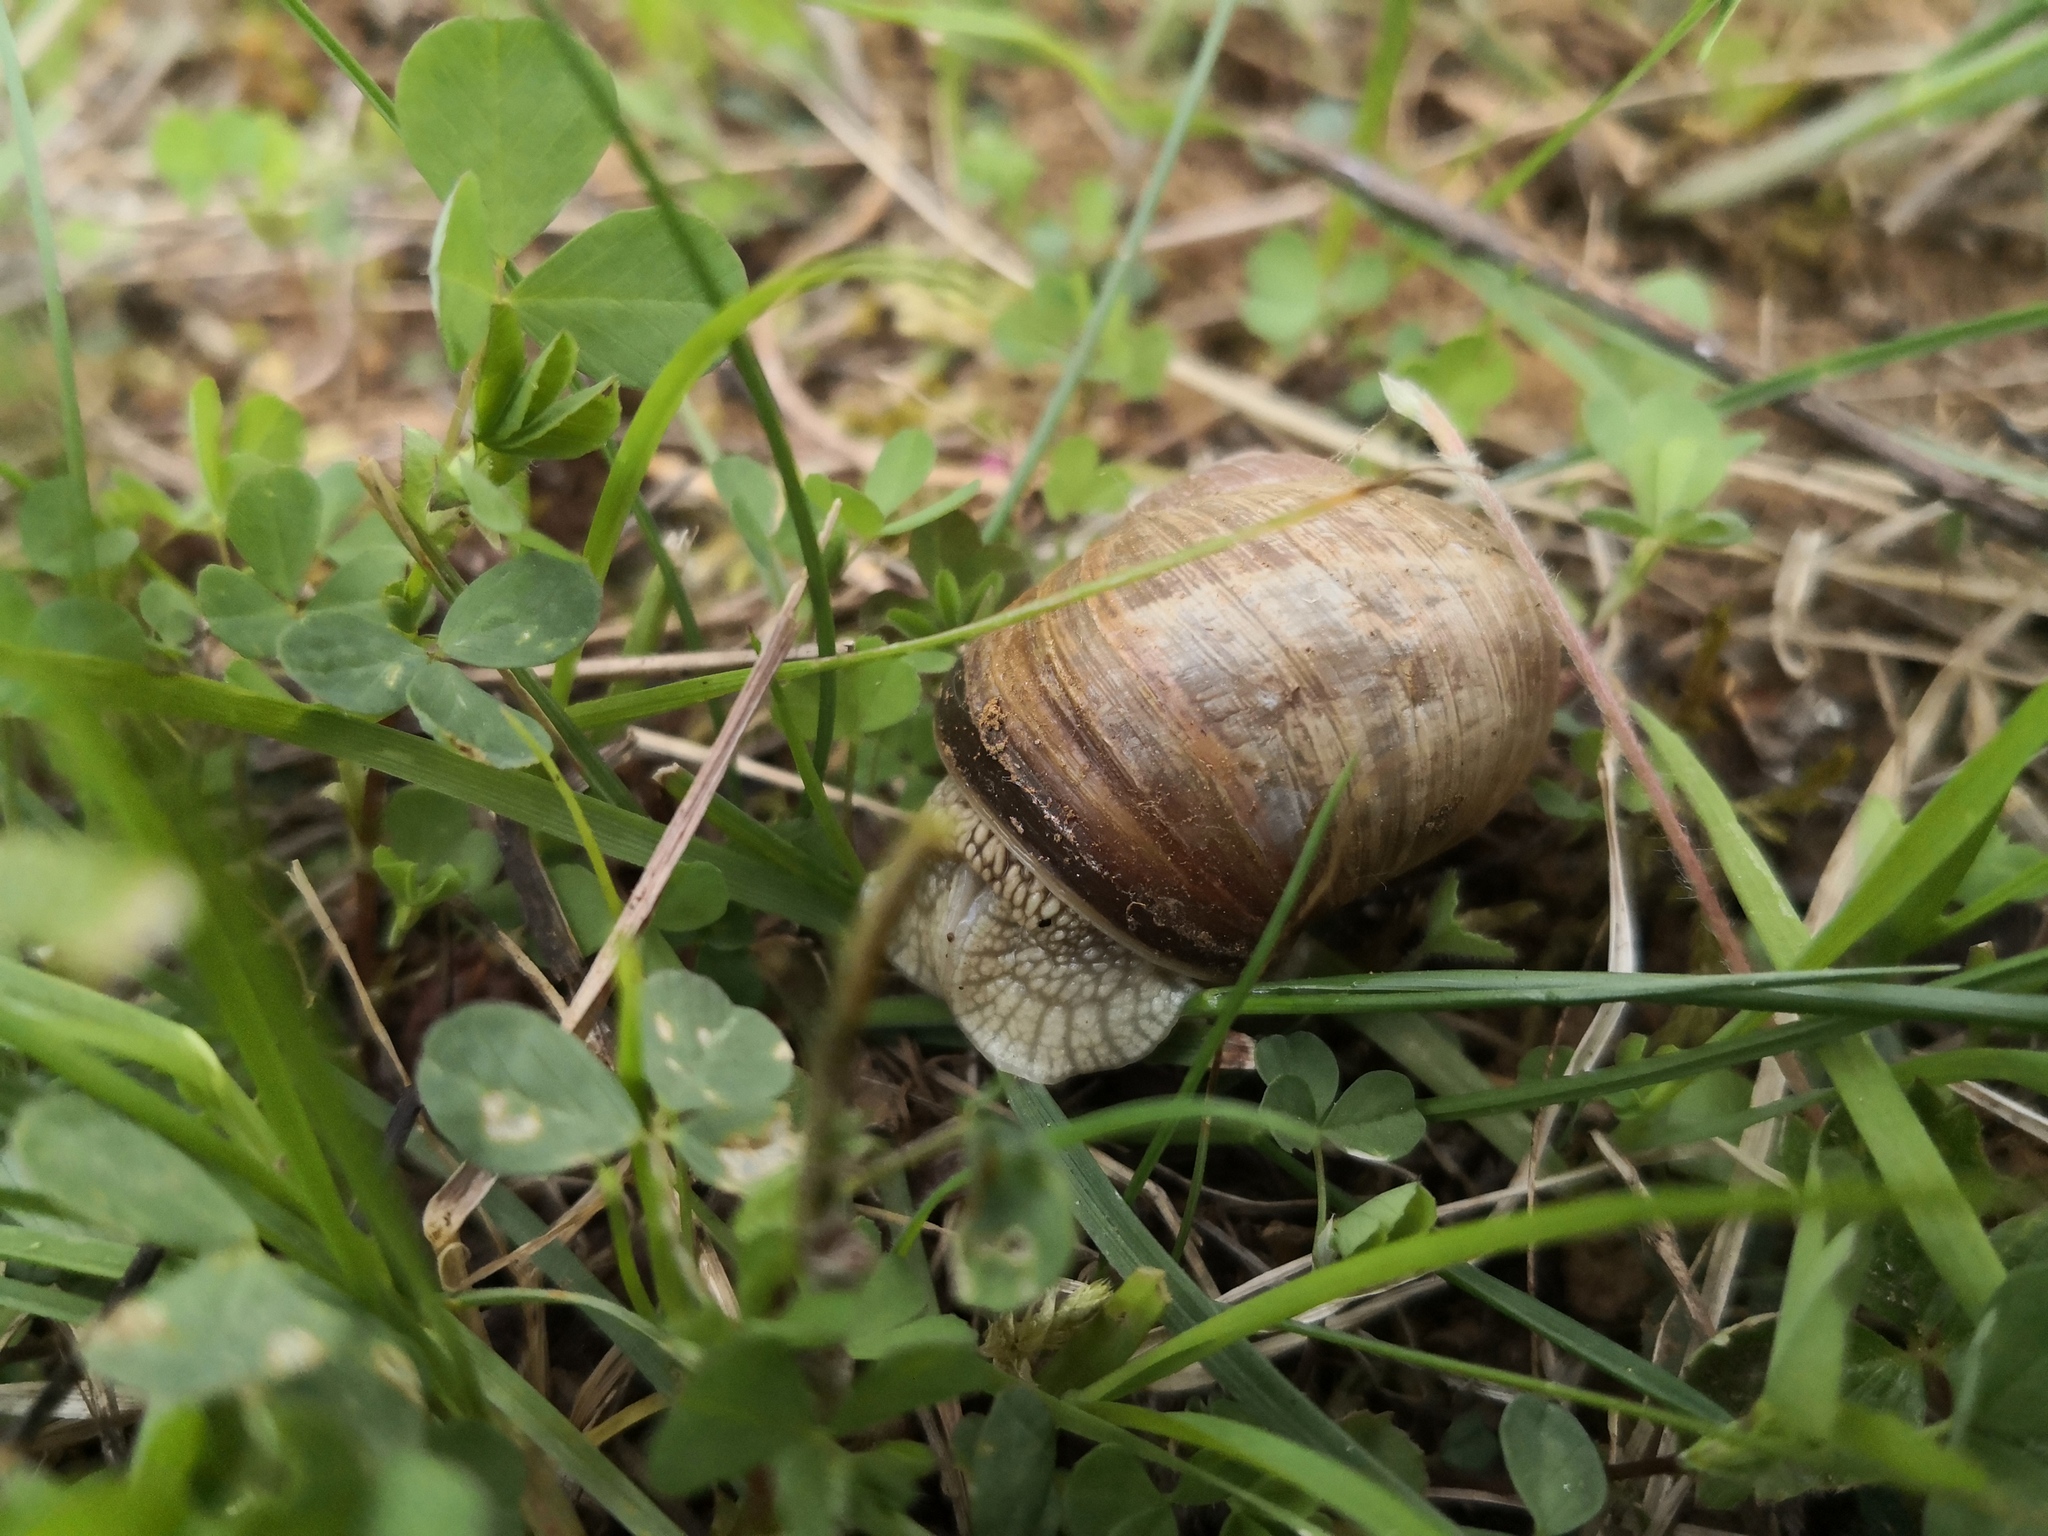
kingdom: Animalia
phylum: Mollusca
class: Gastropoda
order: Stylommatophora
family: Helicidae
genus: Helix
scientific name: Helix pomatia
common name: Roman snail
